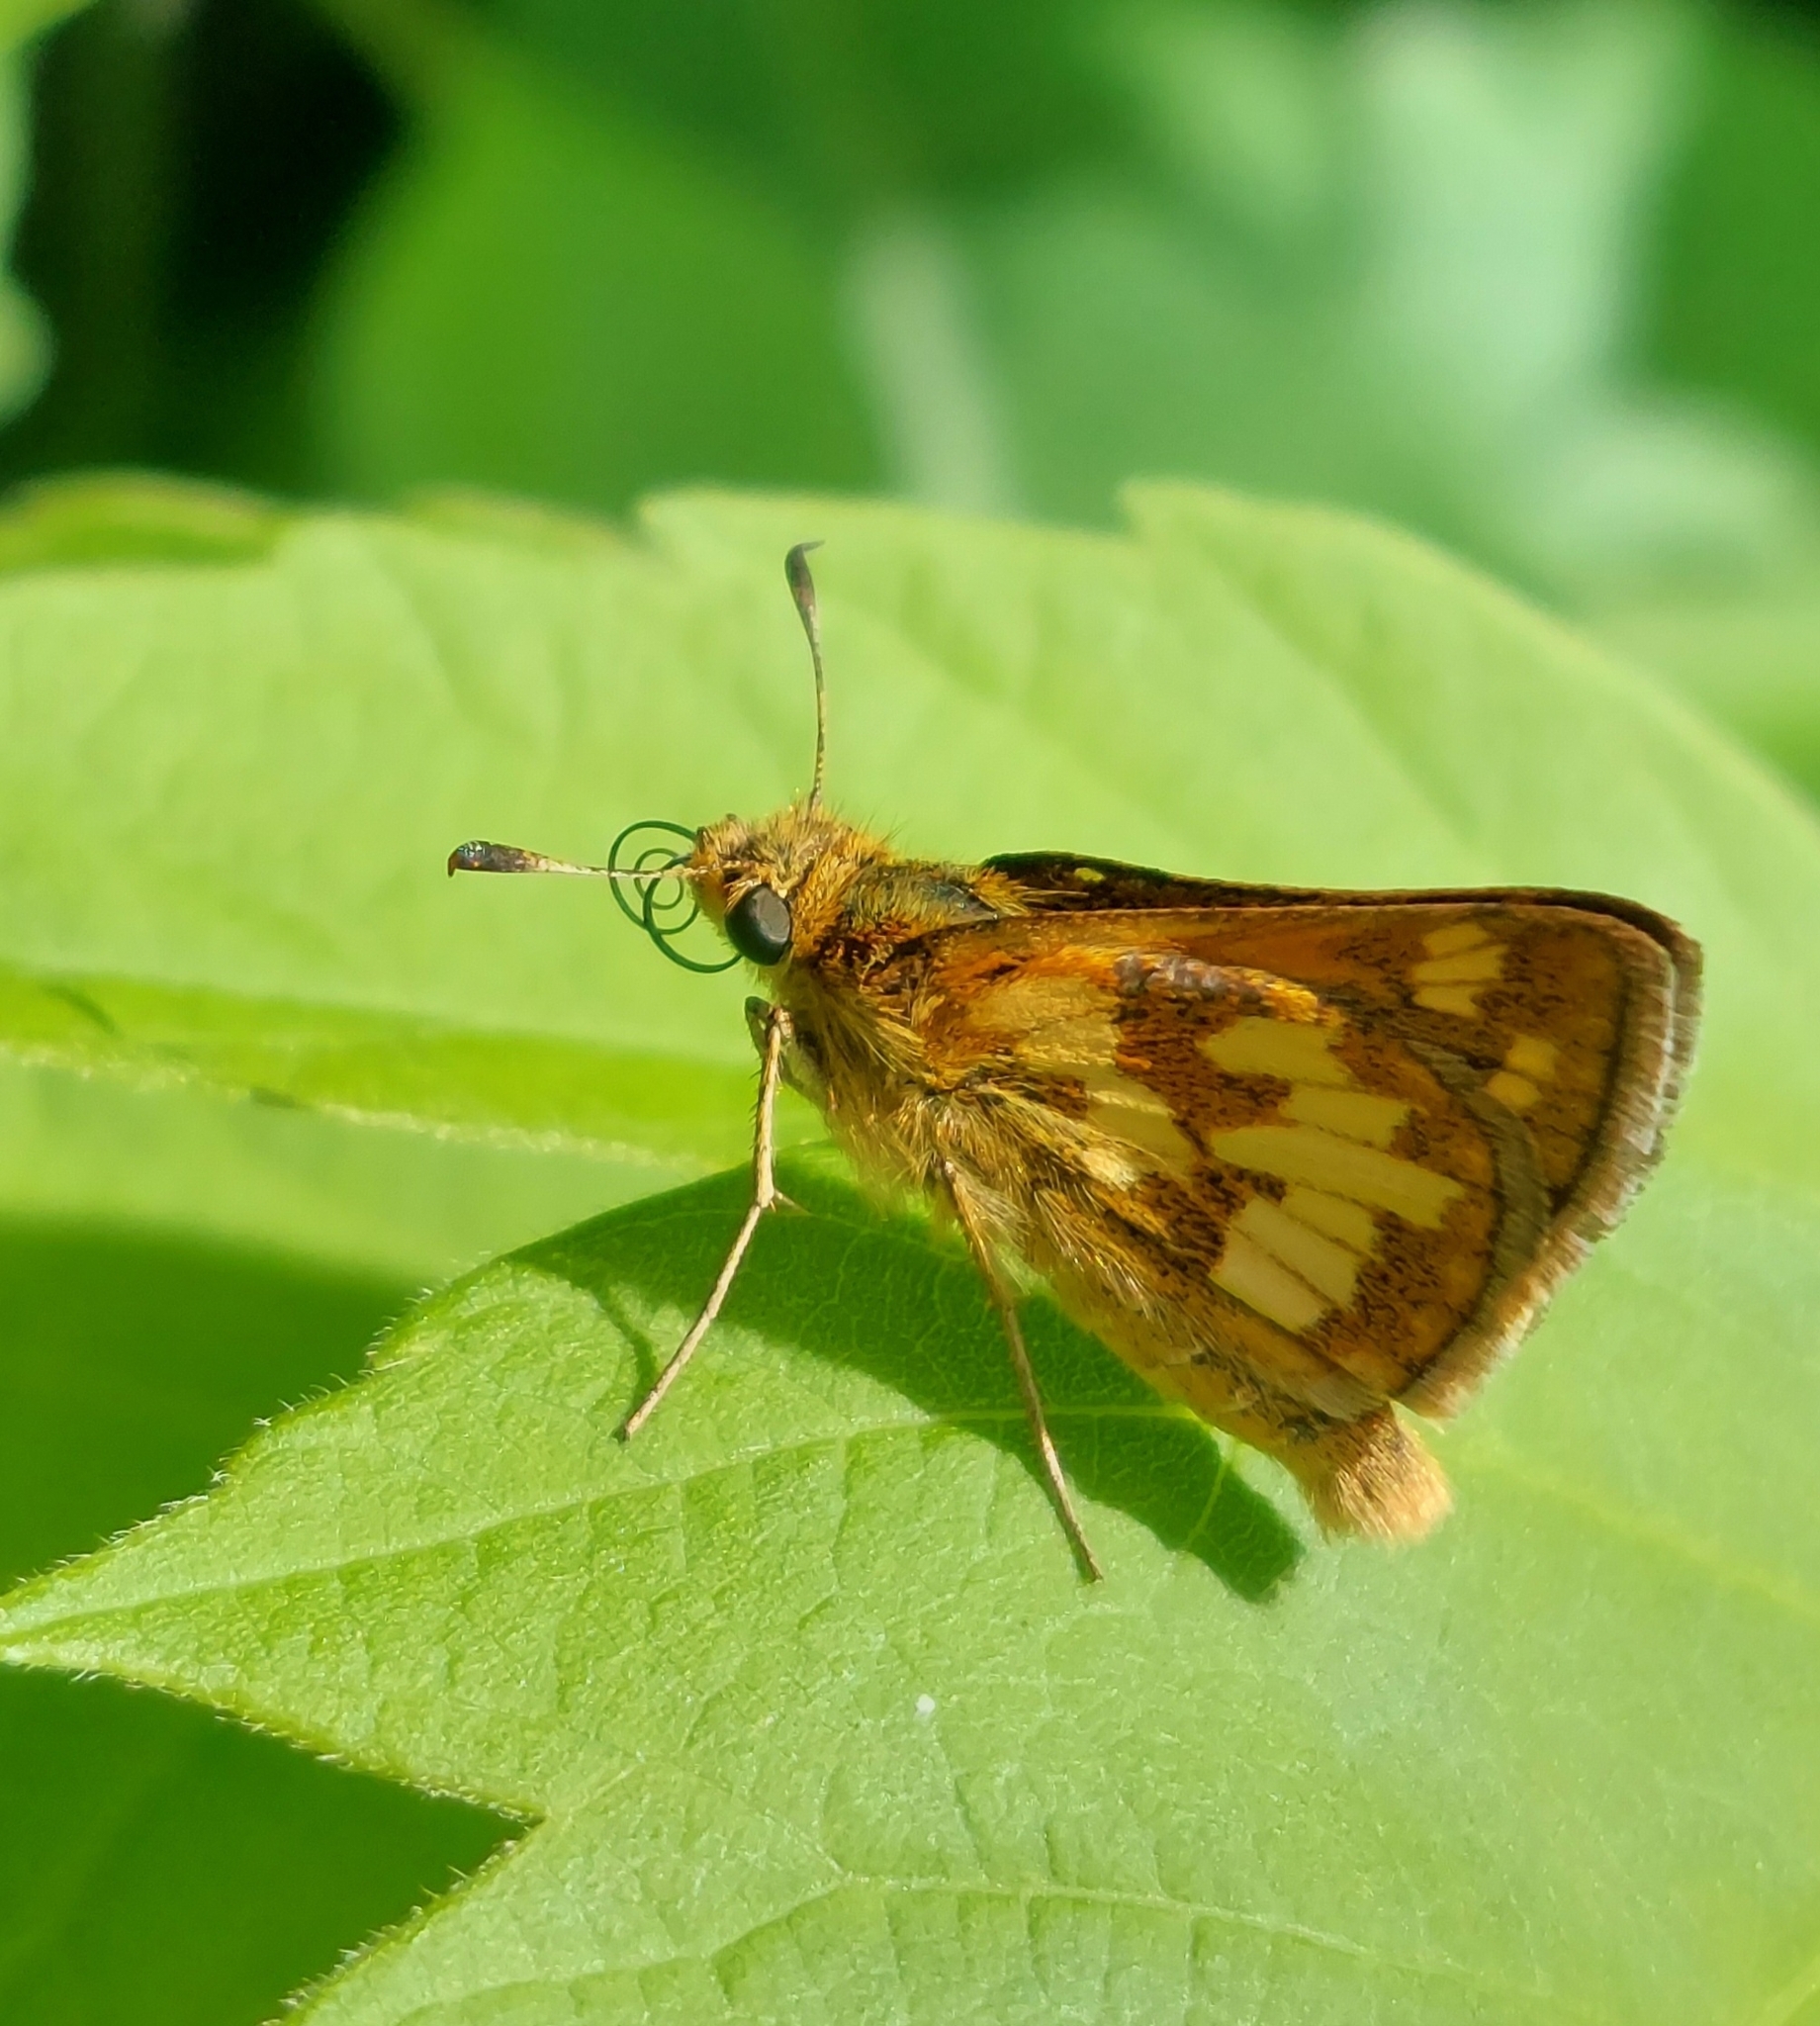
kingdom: Animalia
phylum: Arthropoda
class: Insecta
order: Lepidoptera
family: Hesperiidae
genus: Polites
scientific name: Polites coras
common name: Peck's skipper
